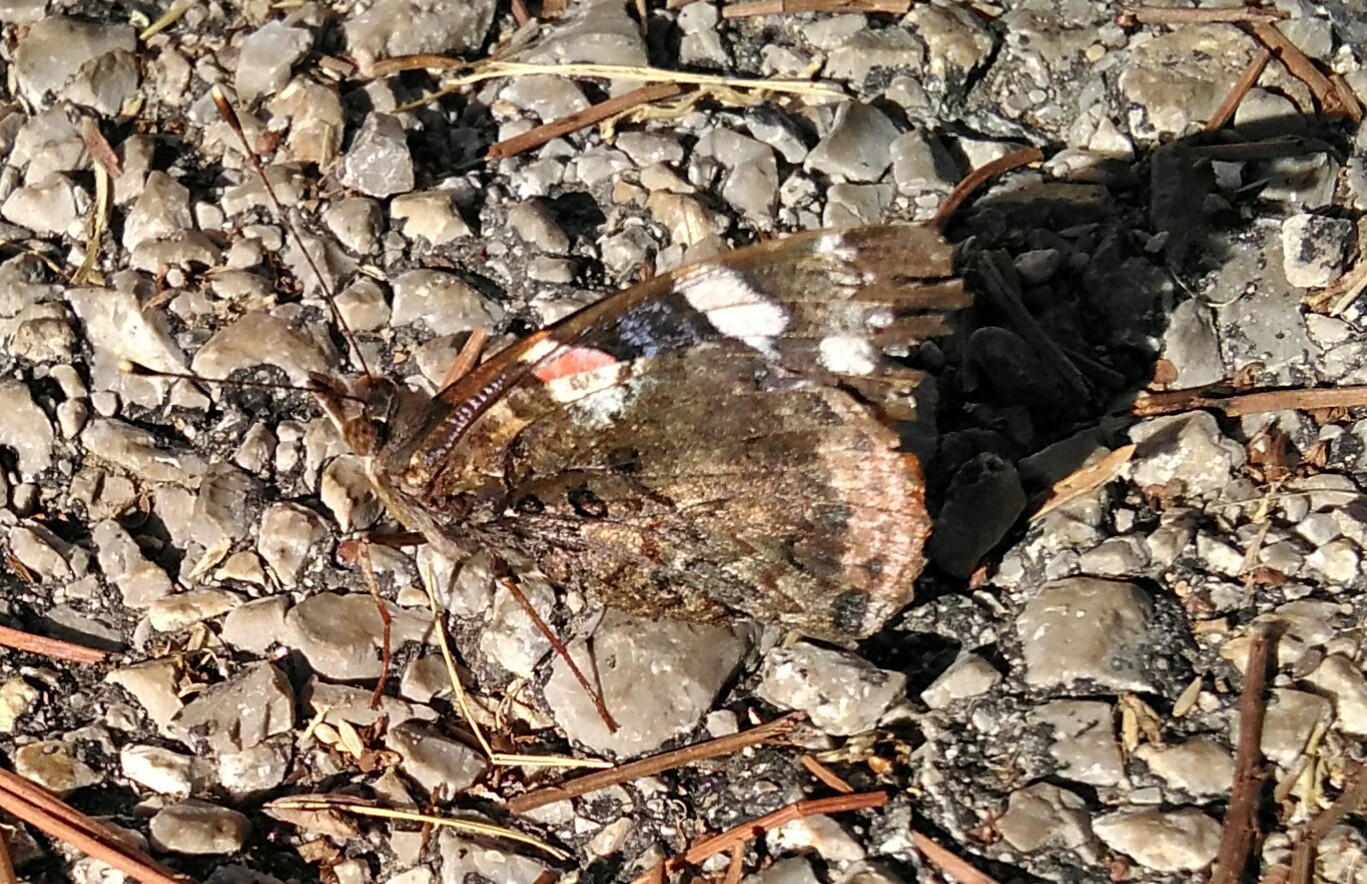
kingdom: Animalia
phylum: Arthropoda
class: Insecta
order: Lepidoptera
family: Nymphalidae
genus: Vanessa
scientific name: Vanessa atalanta
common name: Red admiral
